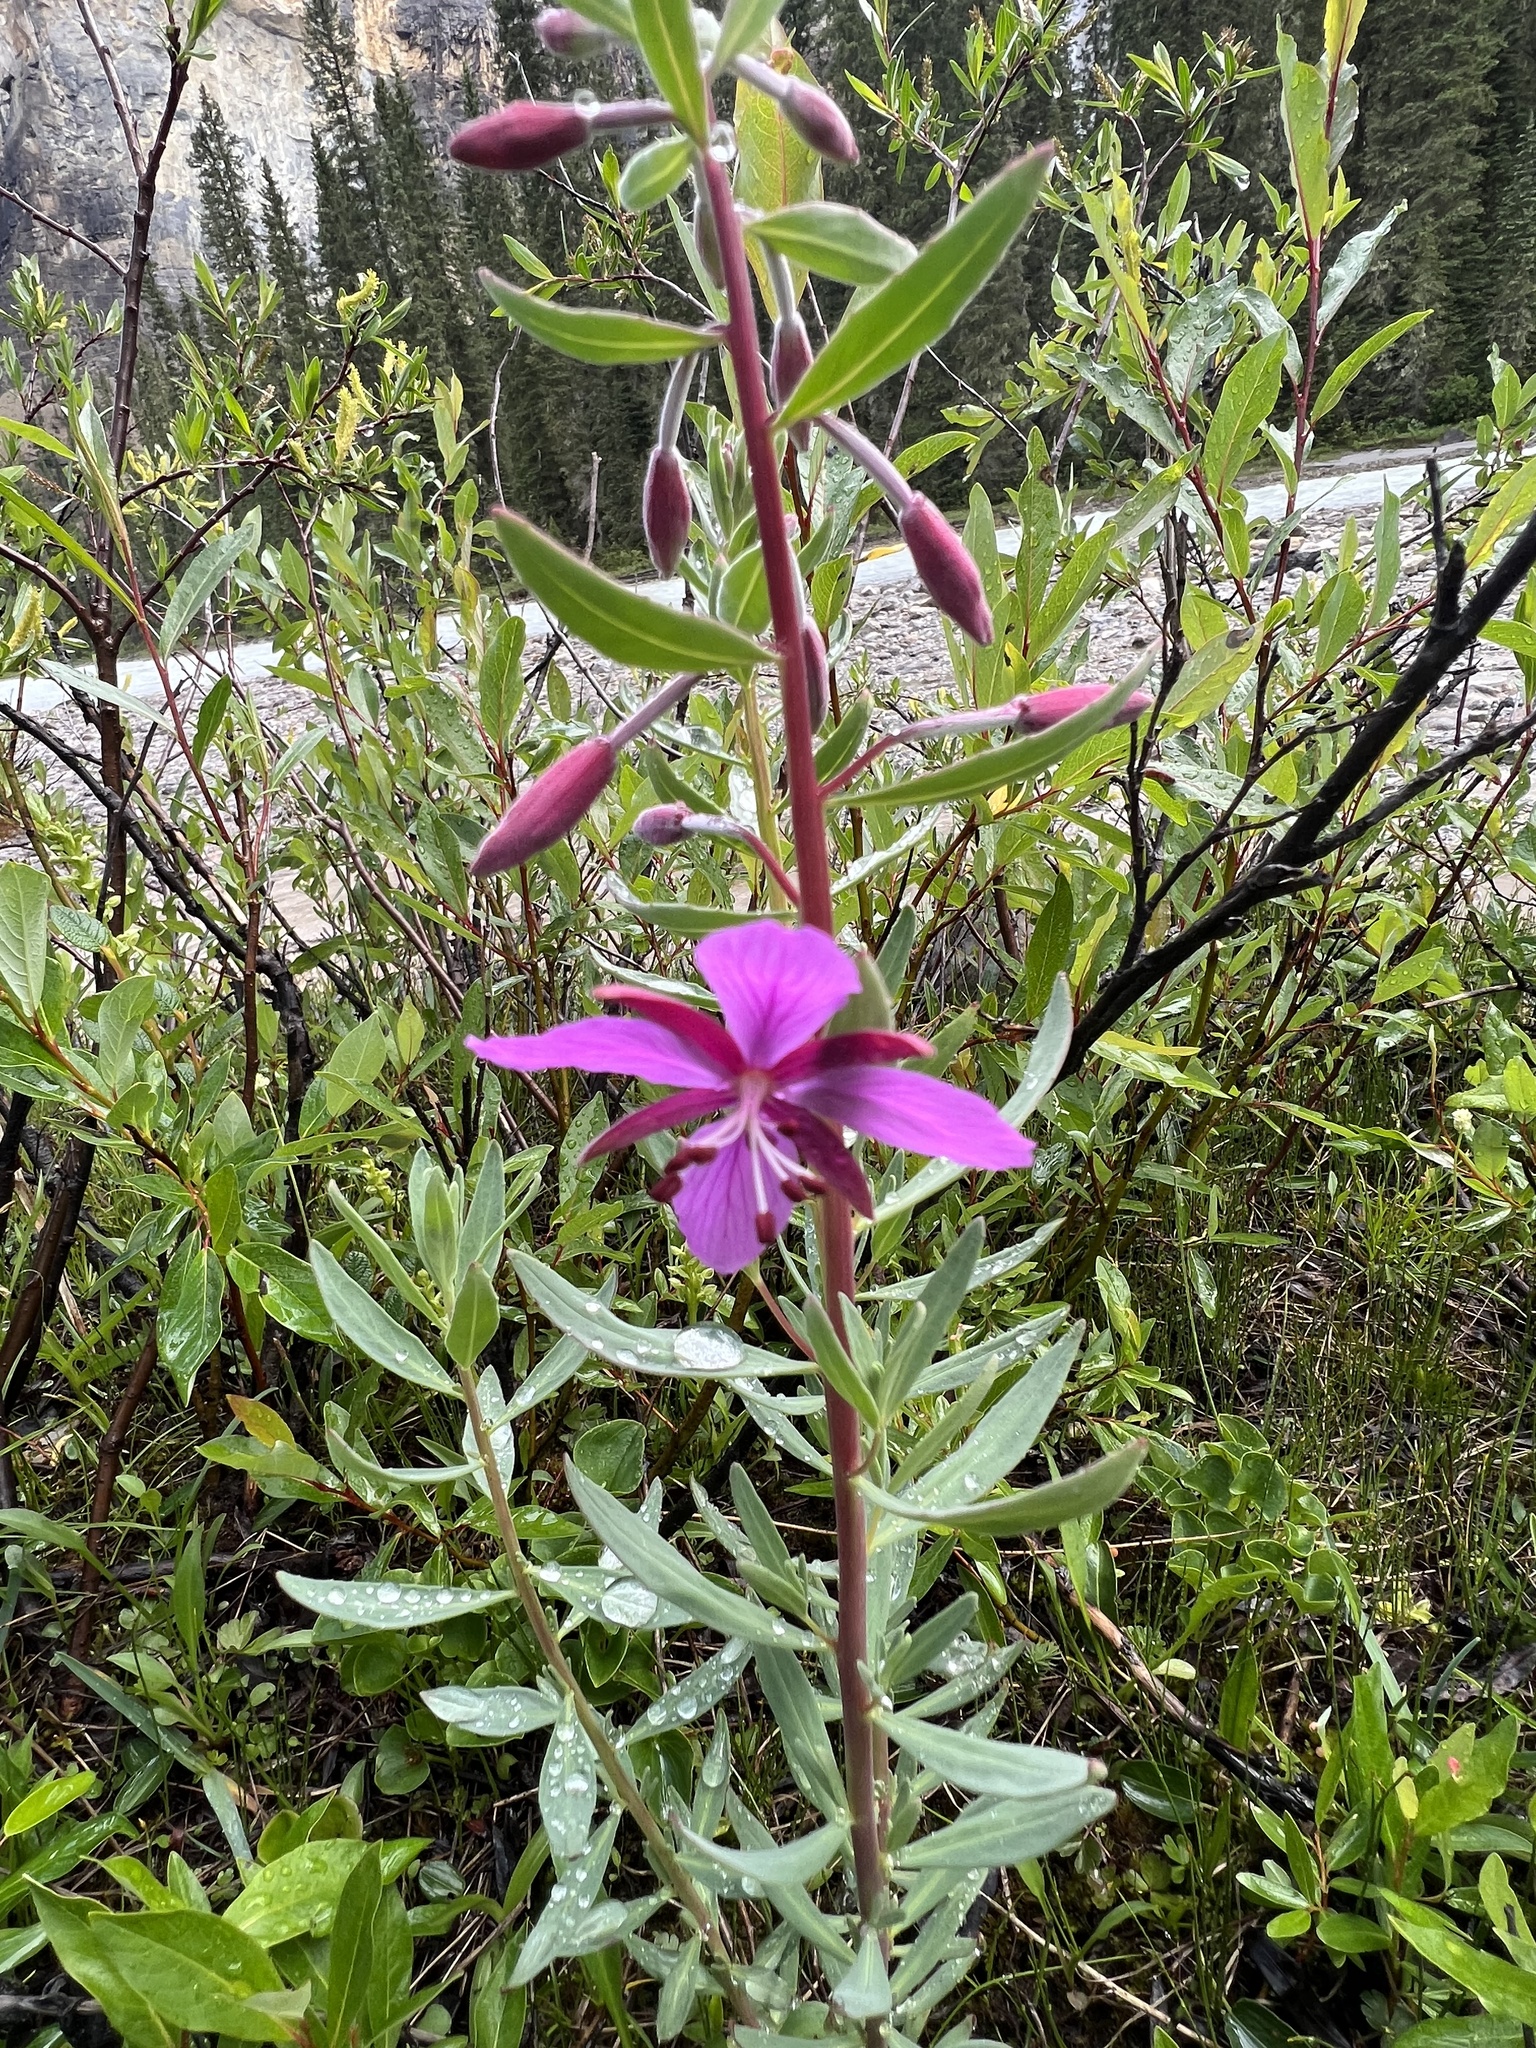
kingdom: Plantae
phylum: Tracheophyta
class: Magnoliopsida
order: Myrtales
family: Onagraceae
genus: Chamaenerion
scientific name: Chamaenerion latifolium
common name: Dwarf fireweed
